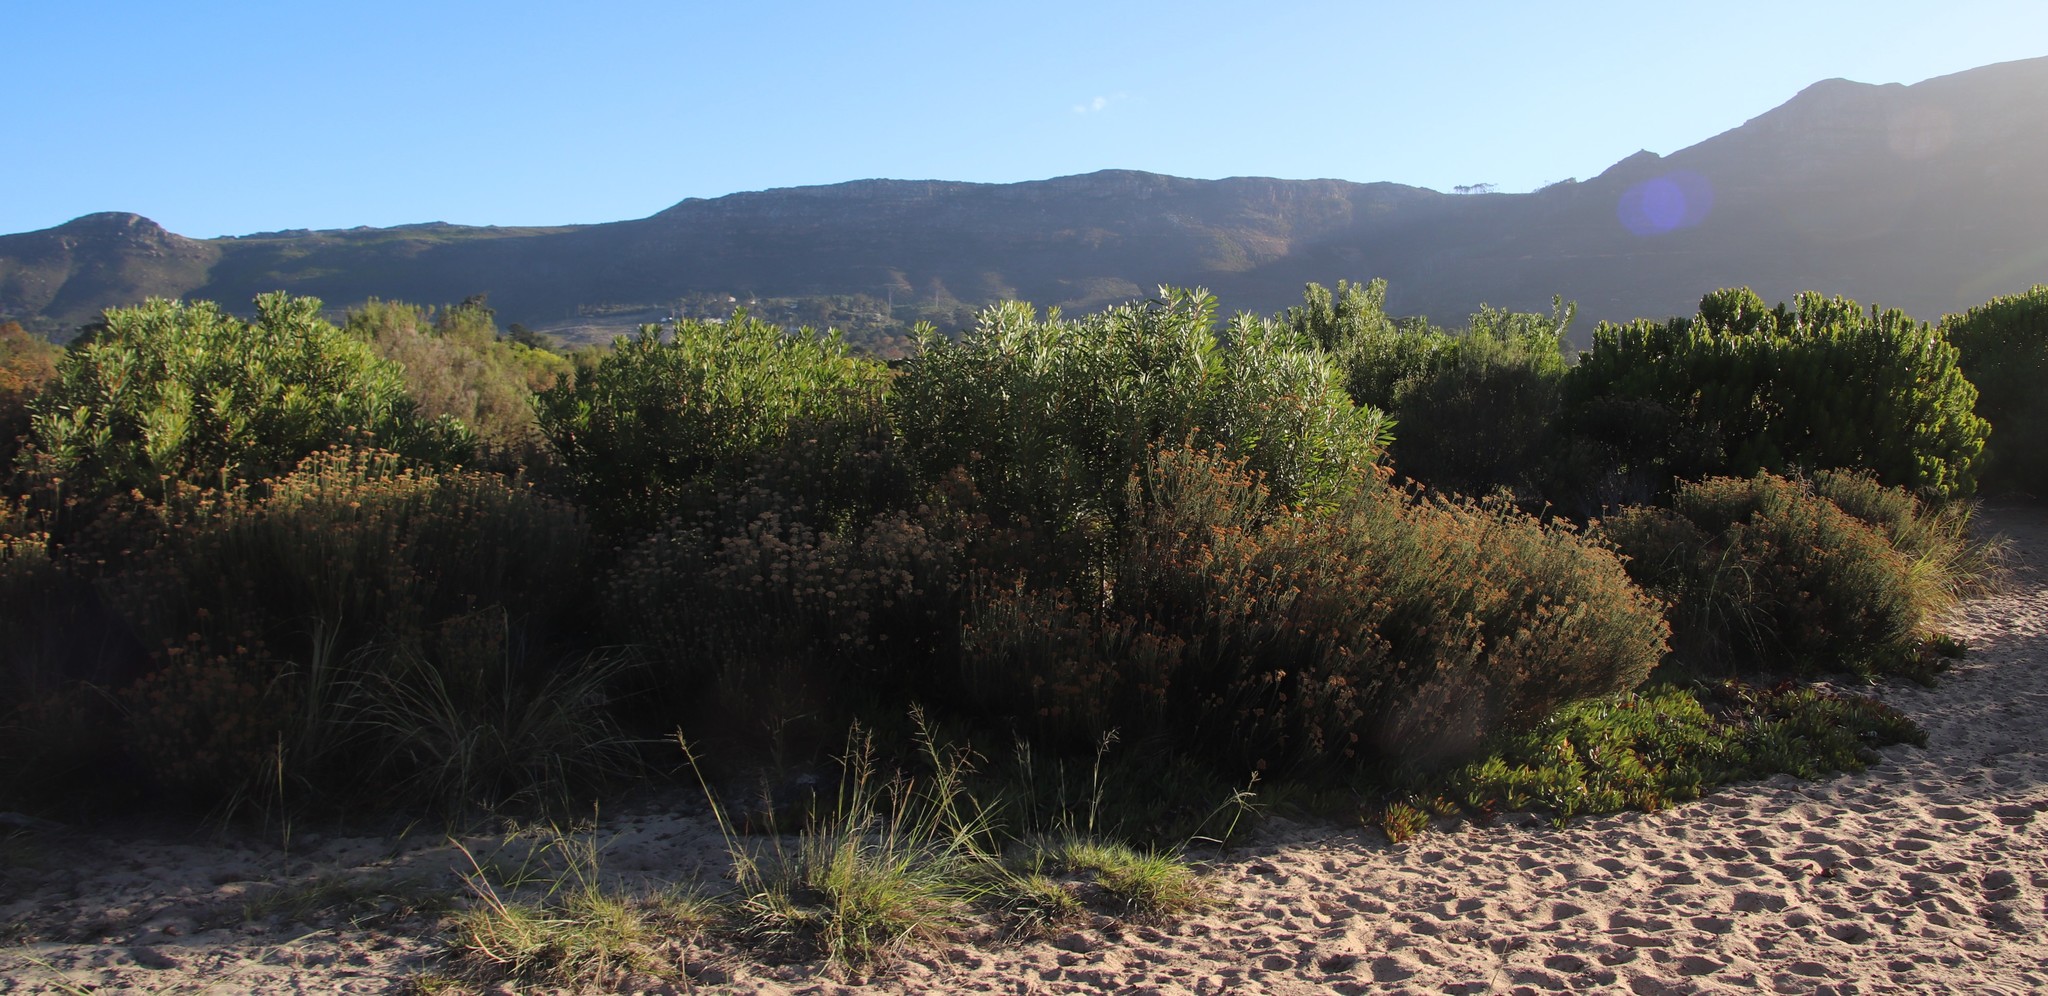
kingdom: Plantae
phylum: Tracheophyta
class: Magnoliopsida
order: Proteales
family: Proteaceae
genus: Protea
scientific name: Protea repens
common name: Sugarbush
